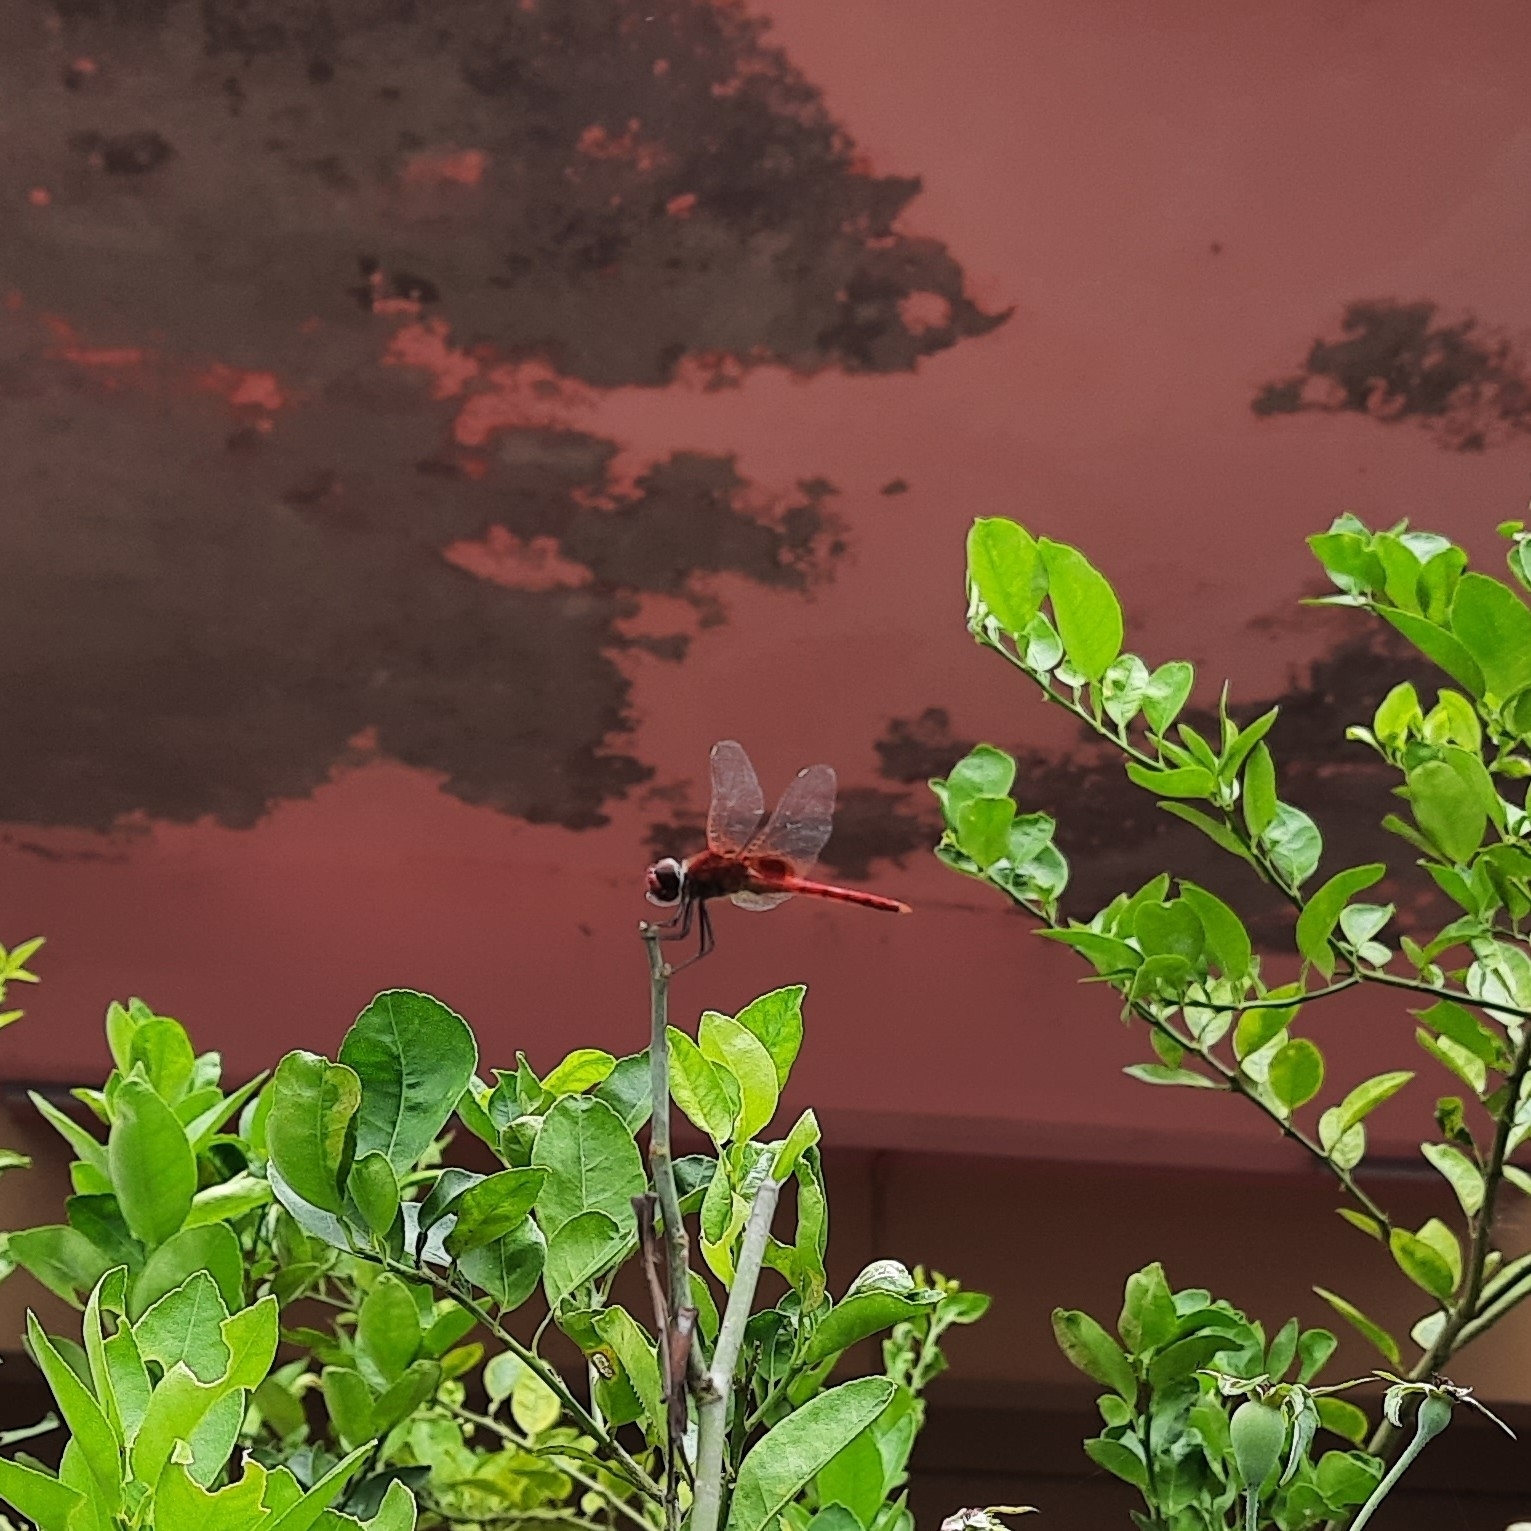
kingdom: Animalia
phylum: Arthropoda
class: Insecta
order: Odonata
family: Libellulidae
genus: Urothemis
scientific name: Urothemis signata
